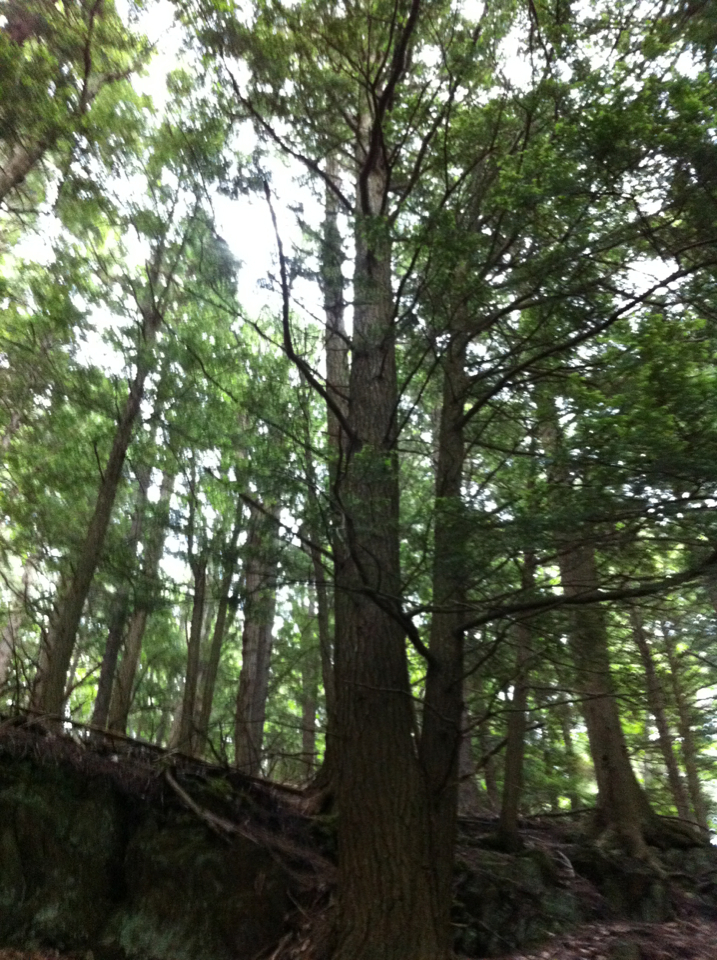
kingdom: Plantae
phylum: Tracheophyta
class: Pinopsida
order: Pinales
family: Pinaceae
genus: Tsuga
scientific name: Tsuga canadensis
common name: Eastern hemlock
